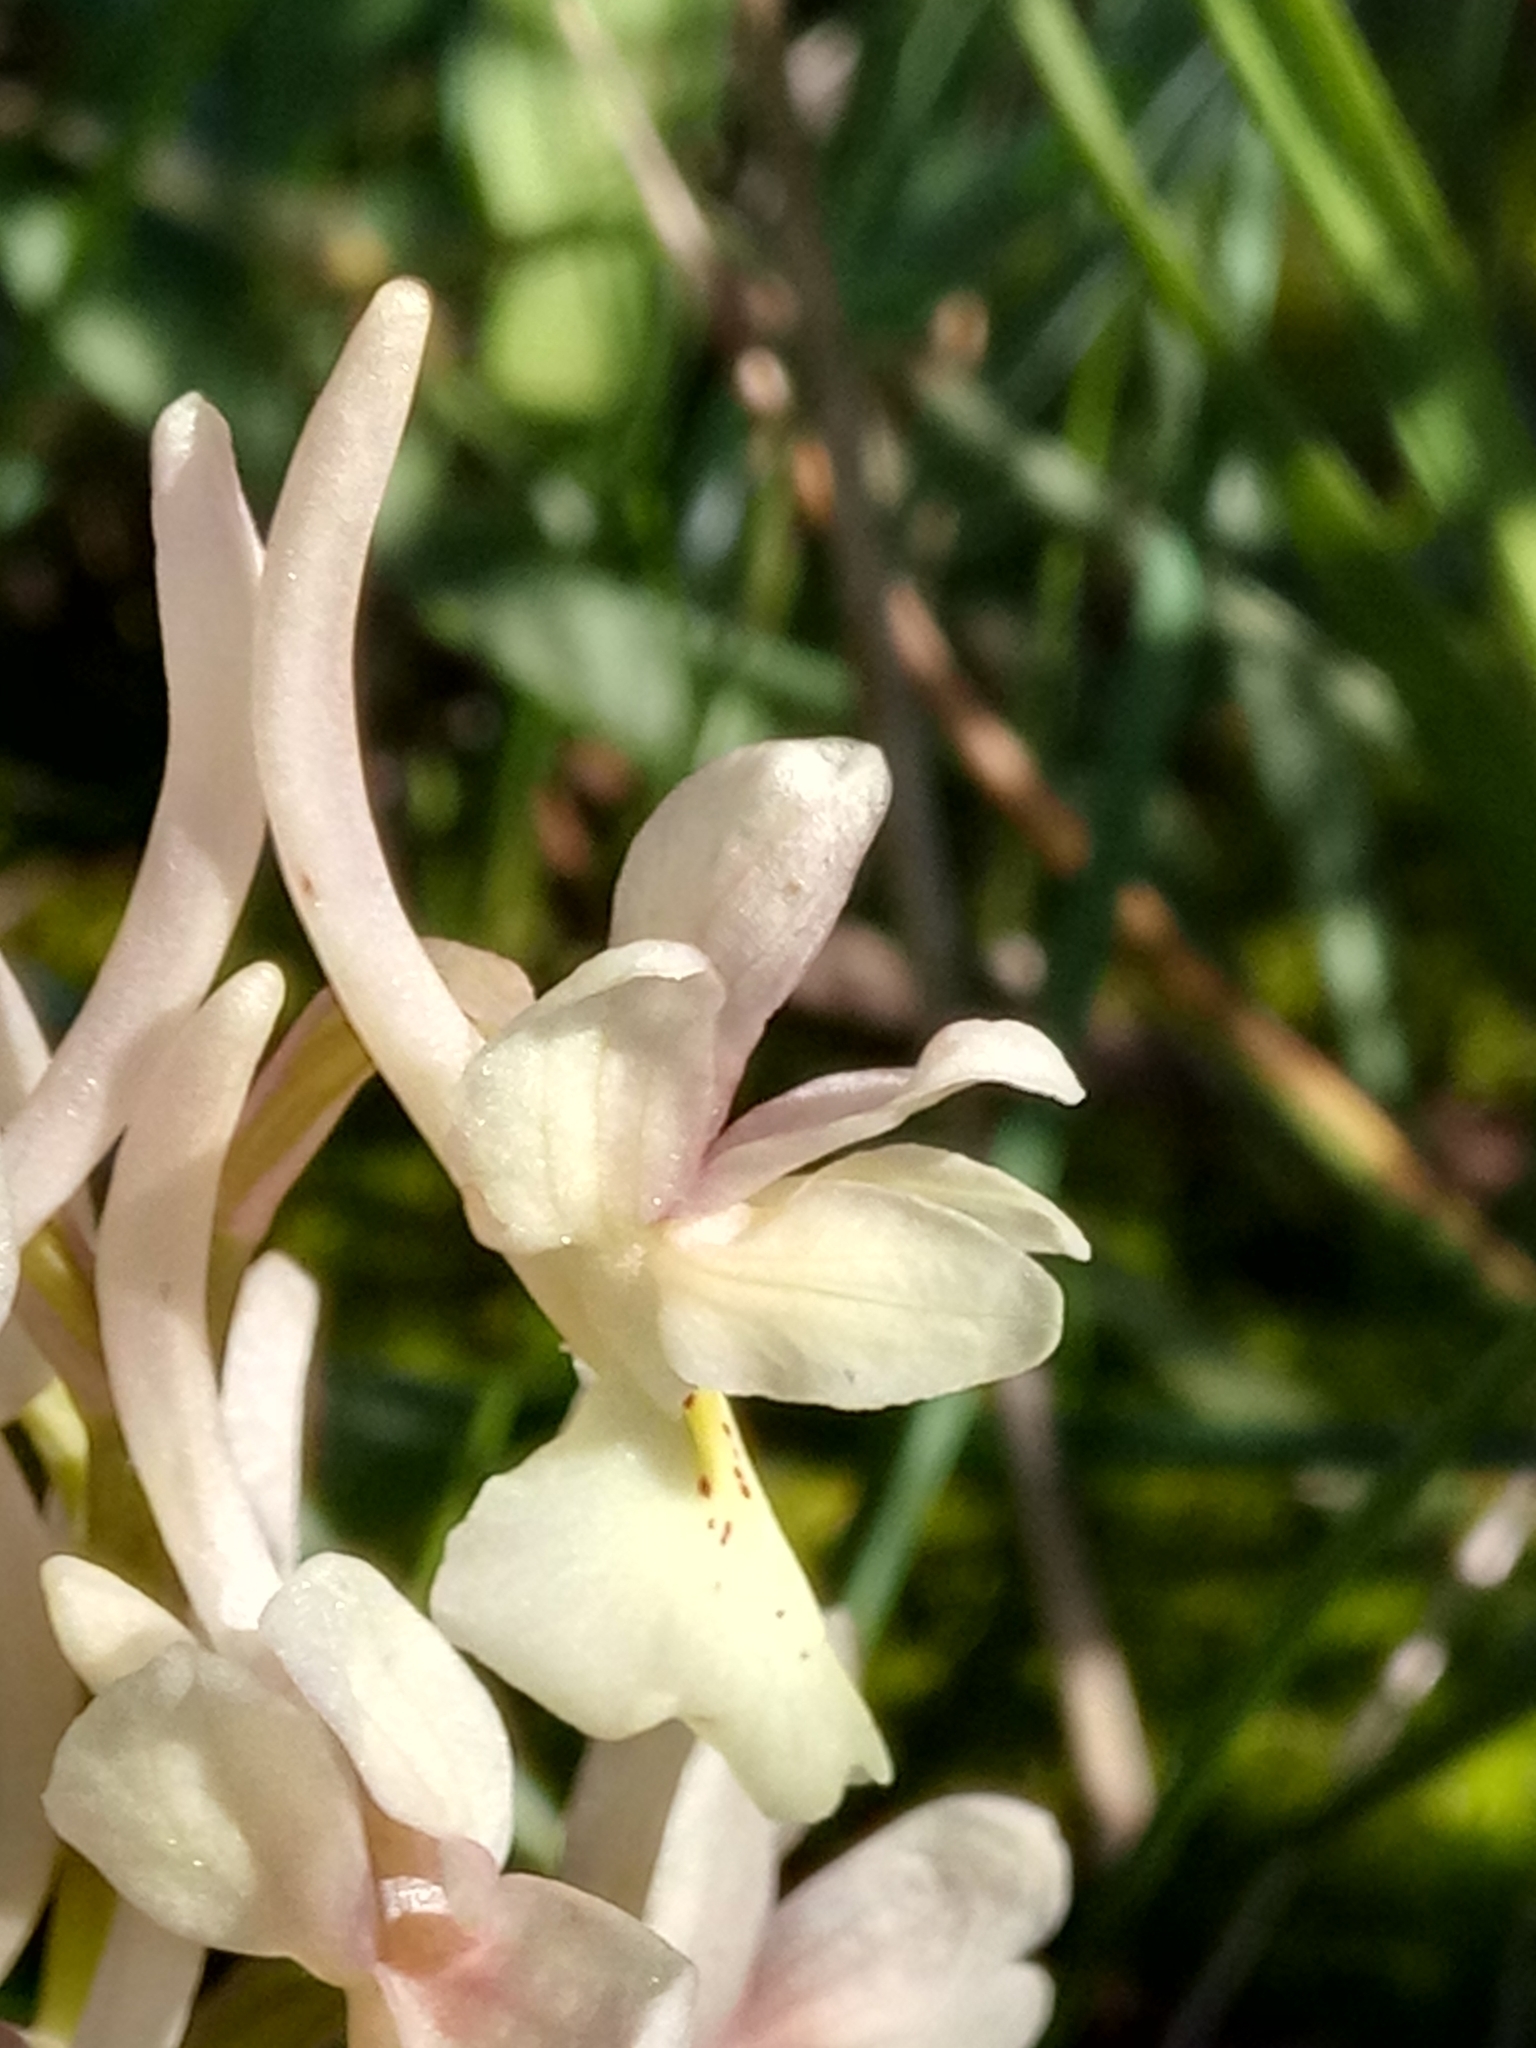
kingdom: Plantae
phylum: Tracheophyta
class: Liliopsida
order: Asparagales
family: Orchidaceae
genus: Orchis
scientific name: Orchis laeta
